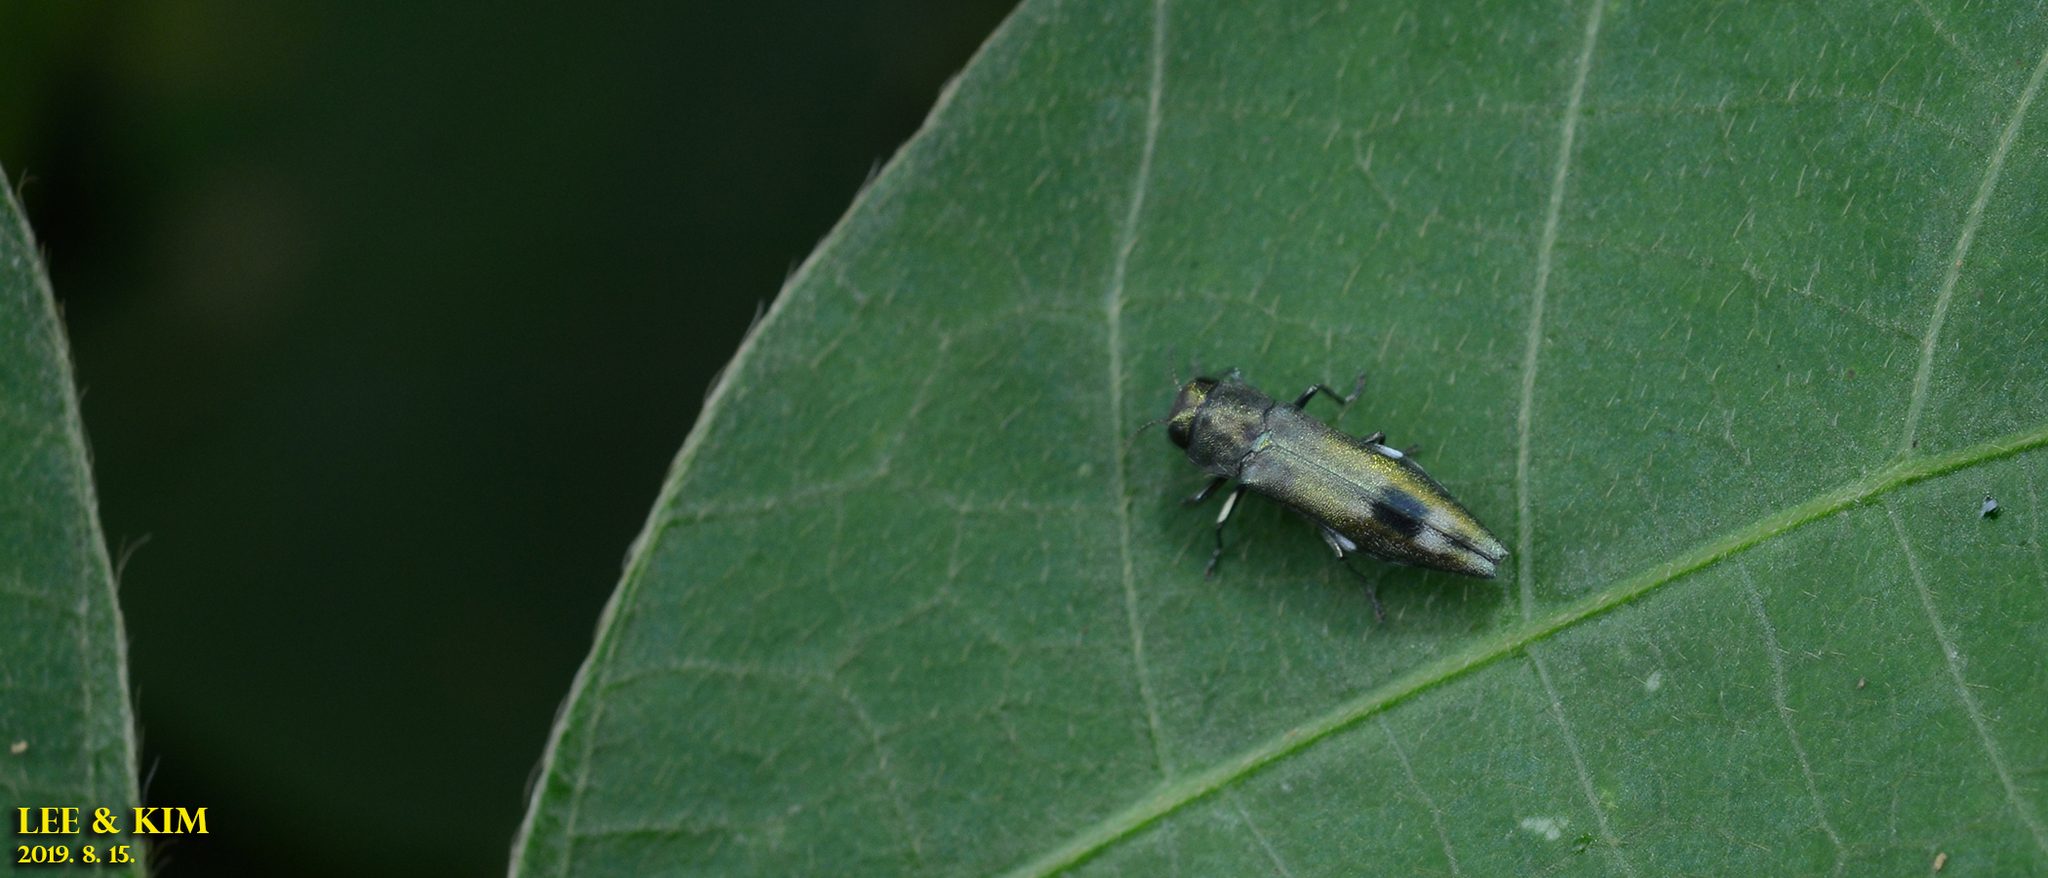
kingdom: Animalia
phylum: Arthropoda
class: Insecta
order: Coleoptera
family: Buprestidae
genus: Agrilus
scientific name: Agrilus chujoi
